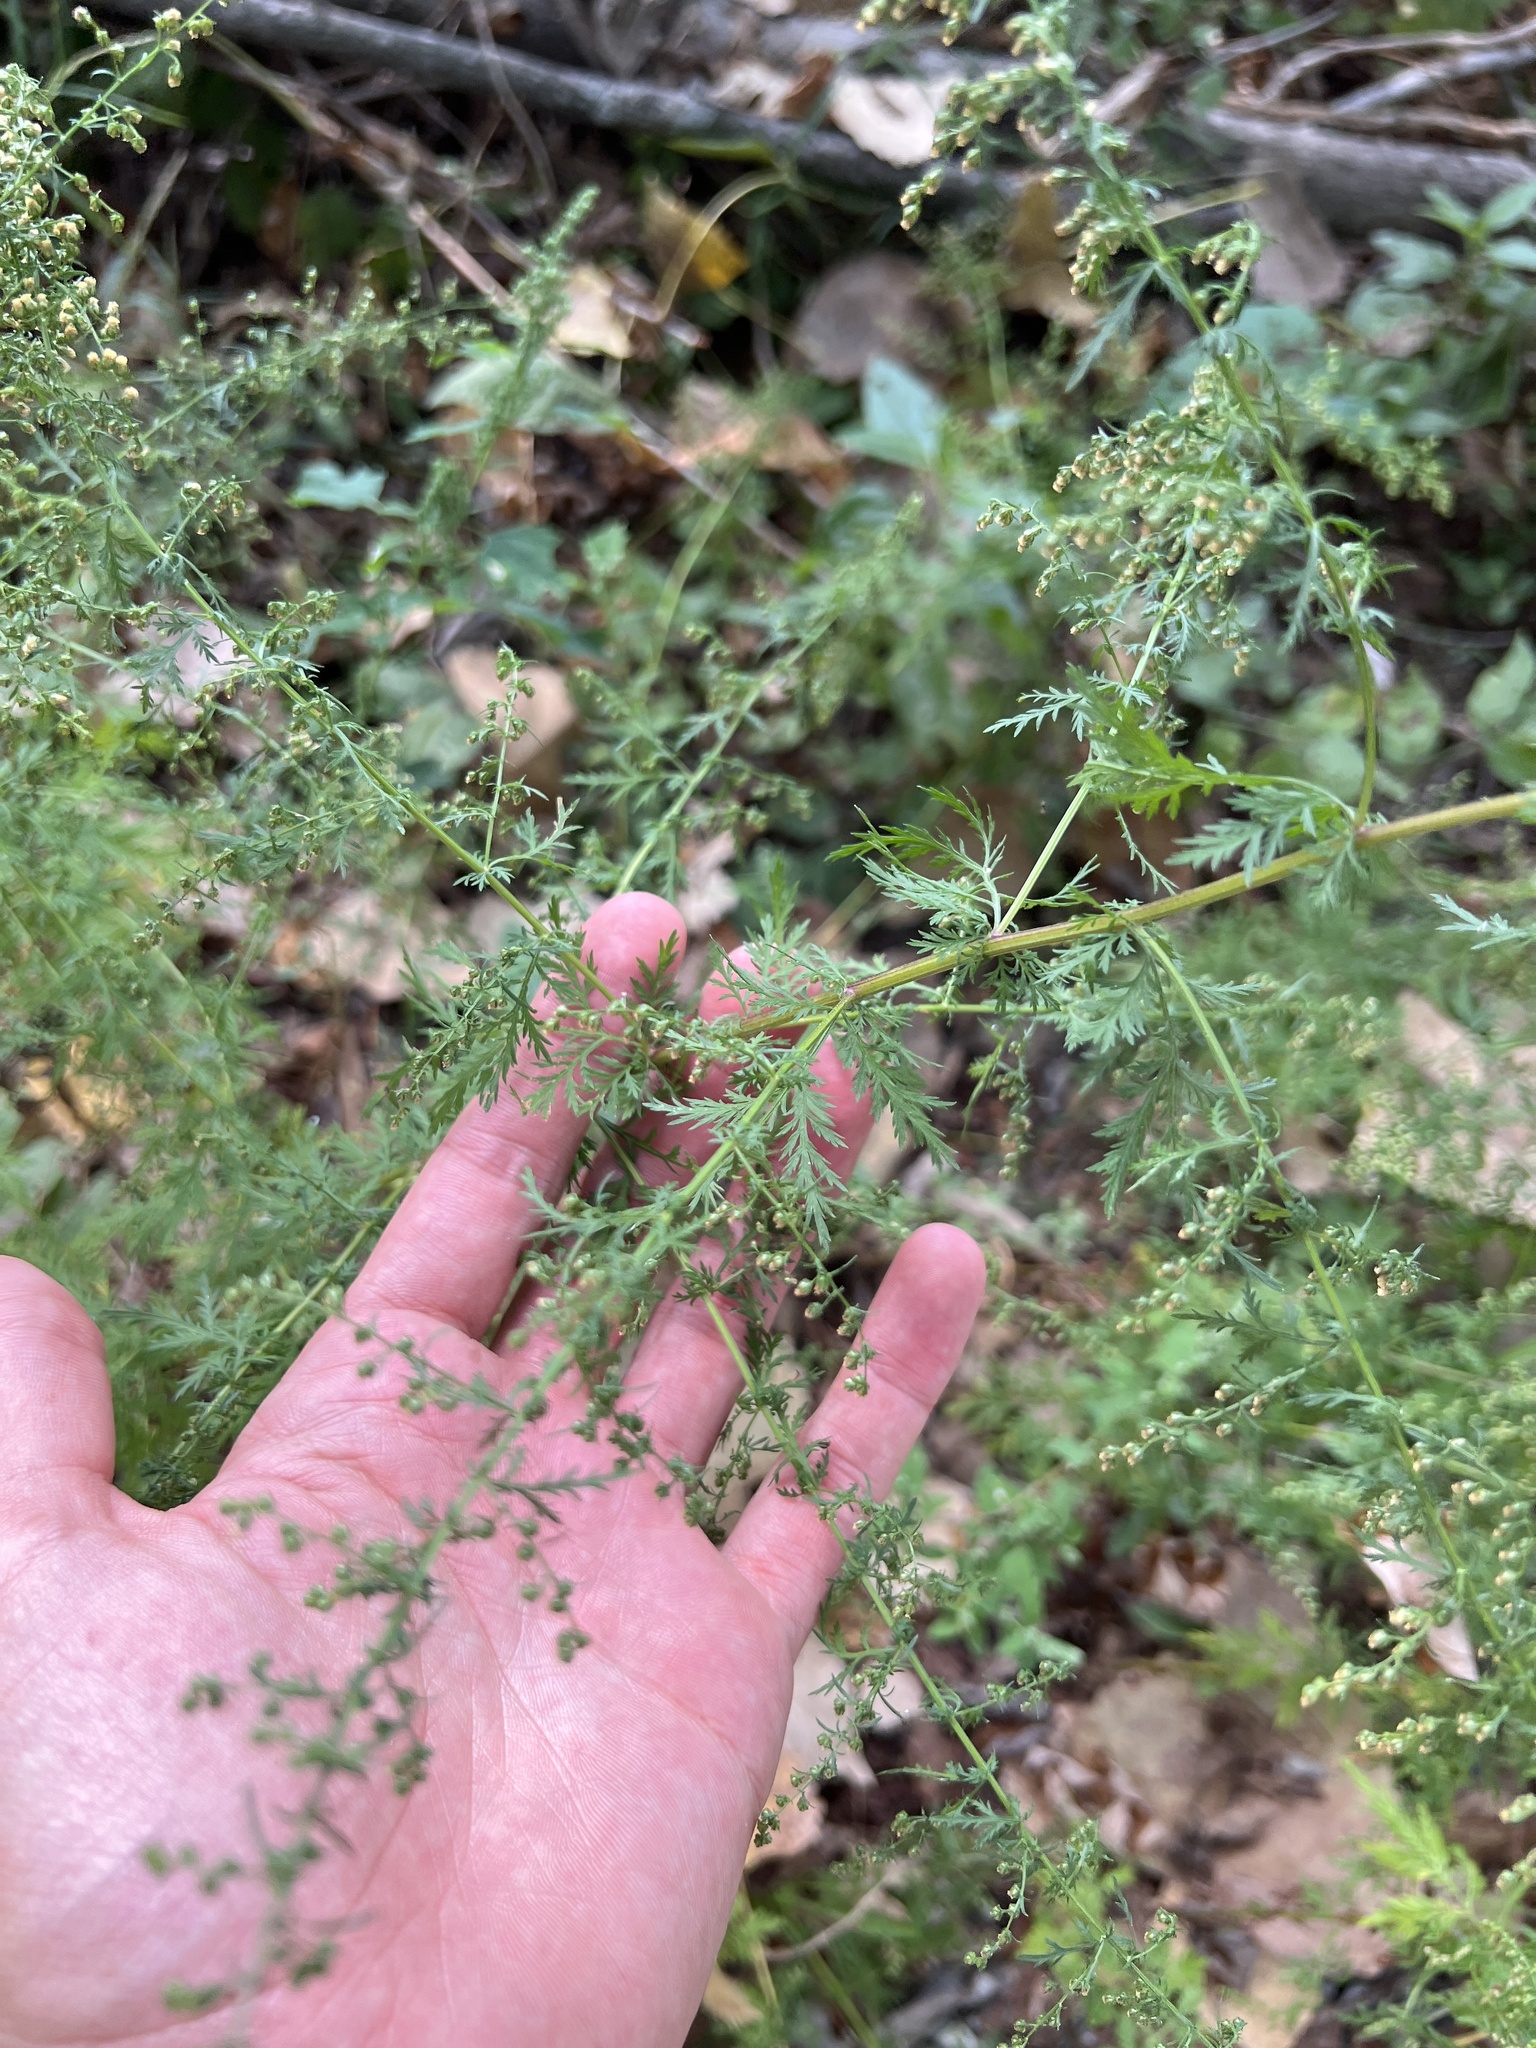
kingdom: Plantae
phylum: Tracheophyta
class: Magnoliopsida
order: Asterales
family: Asteraceae
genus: Artemisia
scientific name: Artemisia annua
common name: Sweet sagewort
